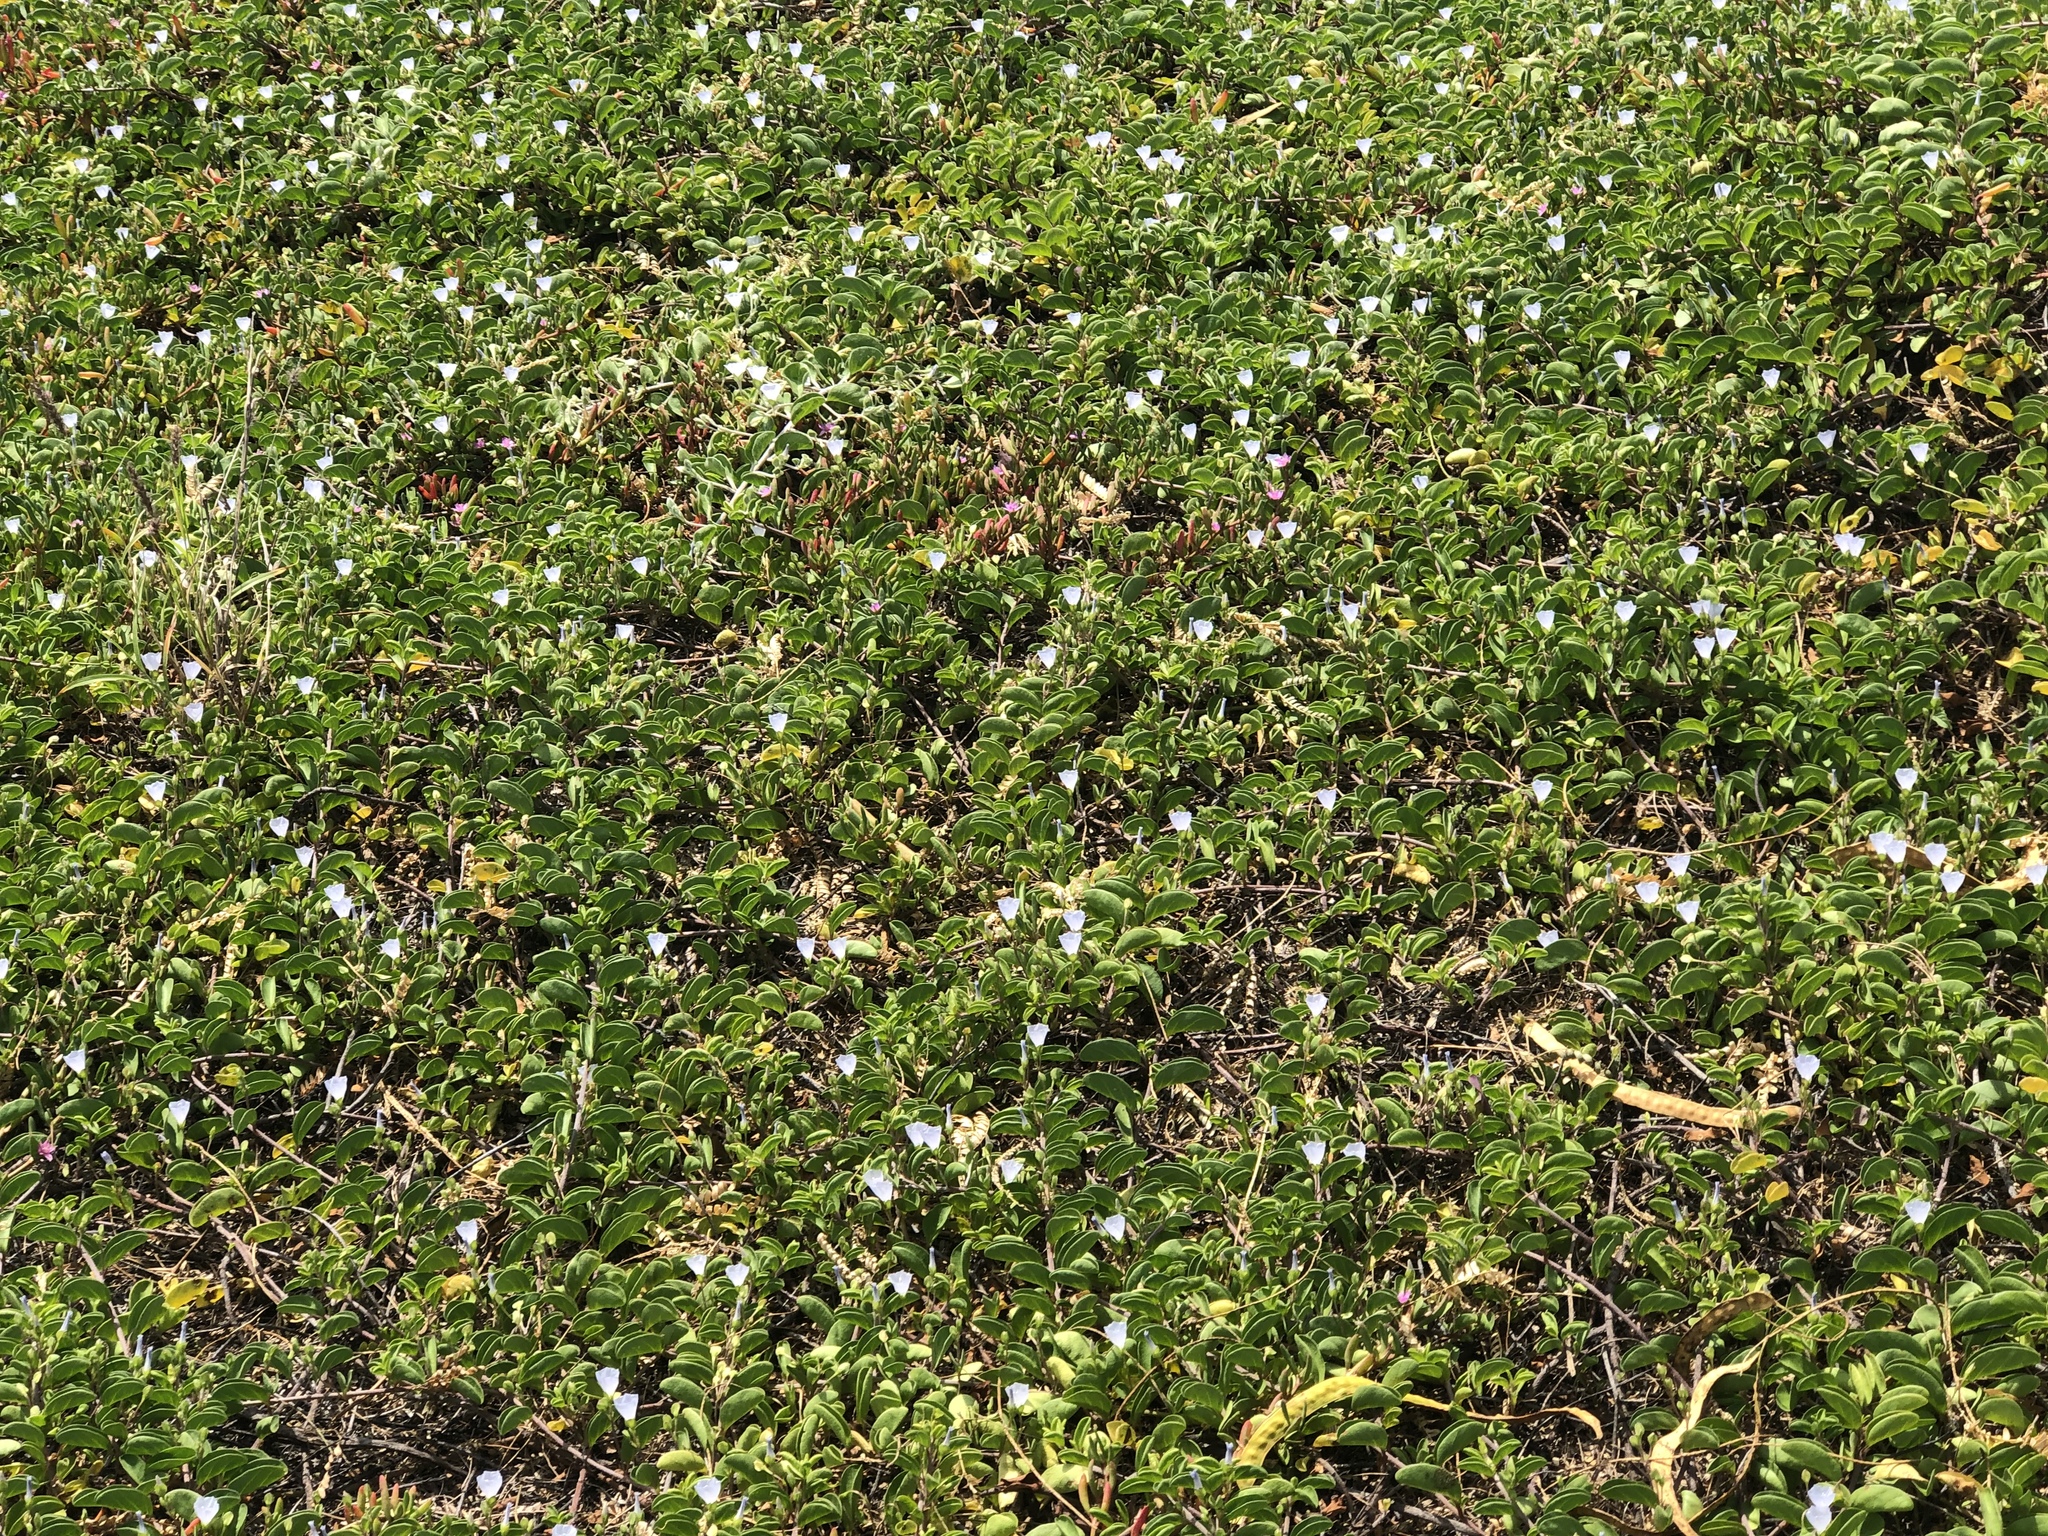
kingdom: Plantae
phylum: Tracheophyta
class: Magnoliopsida
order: Solanales
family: Convolvulaceae
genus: Jacquemontia
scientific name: Jacquemontia sandwicensis
